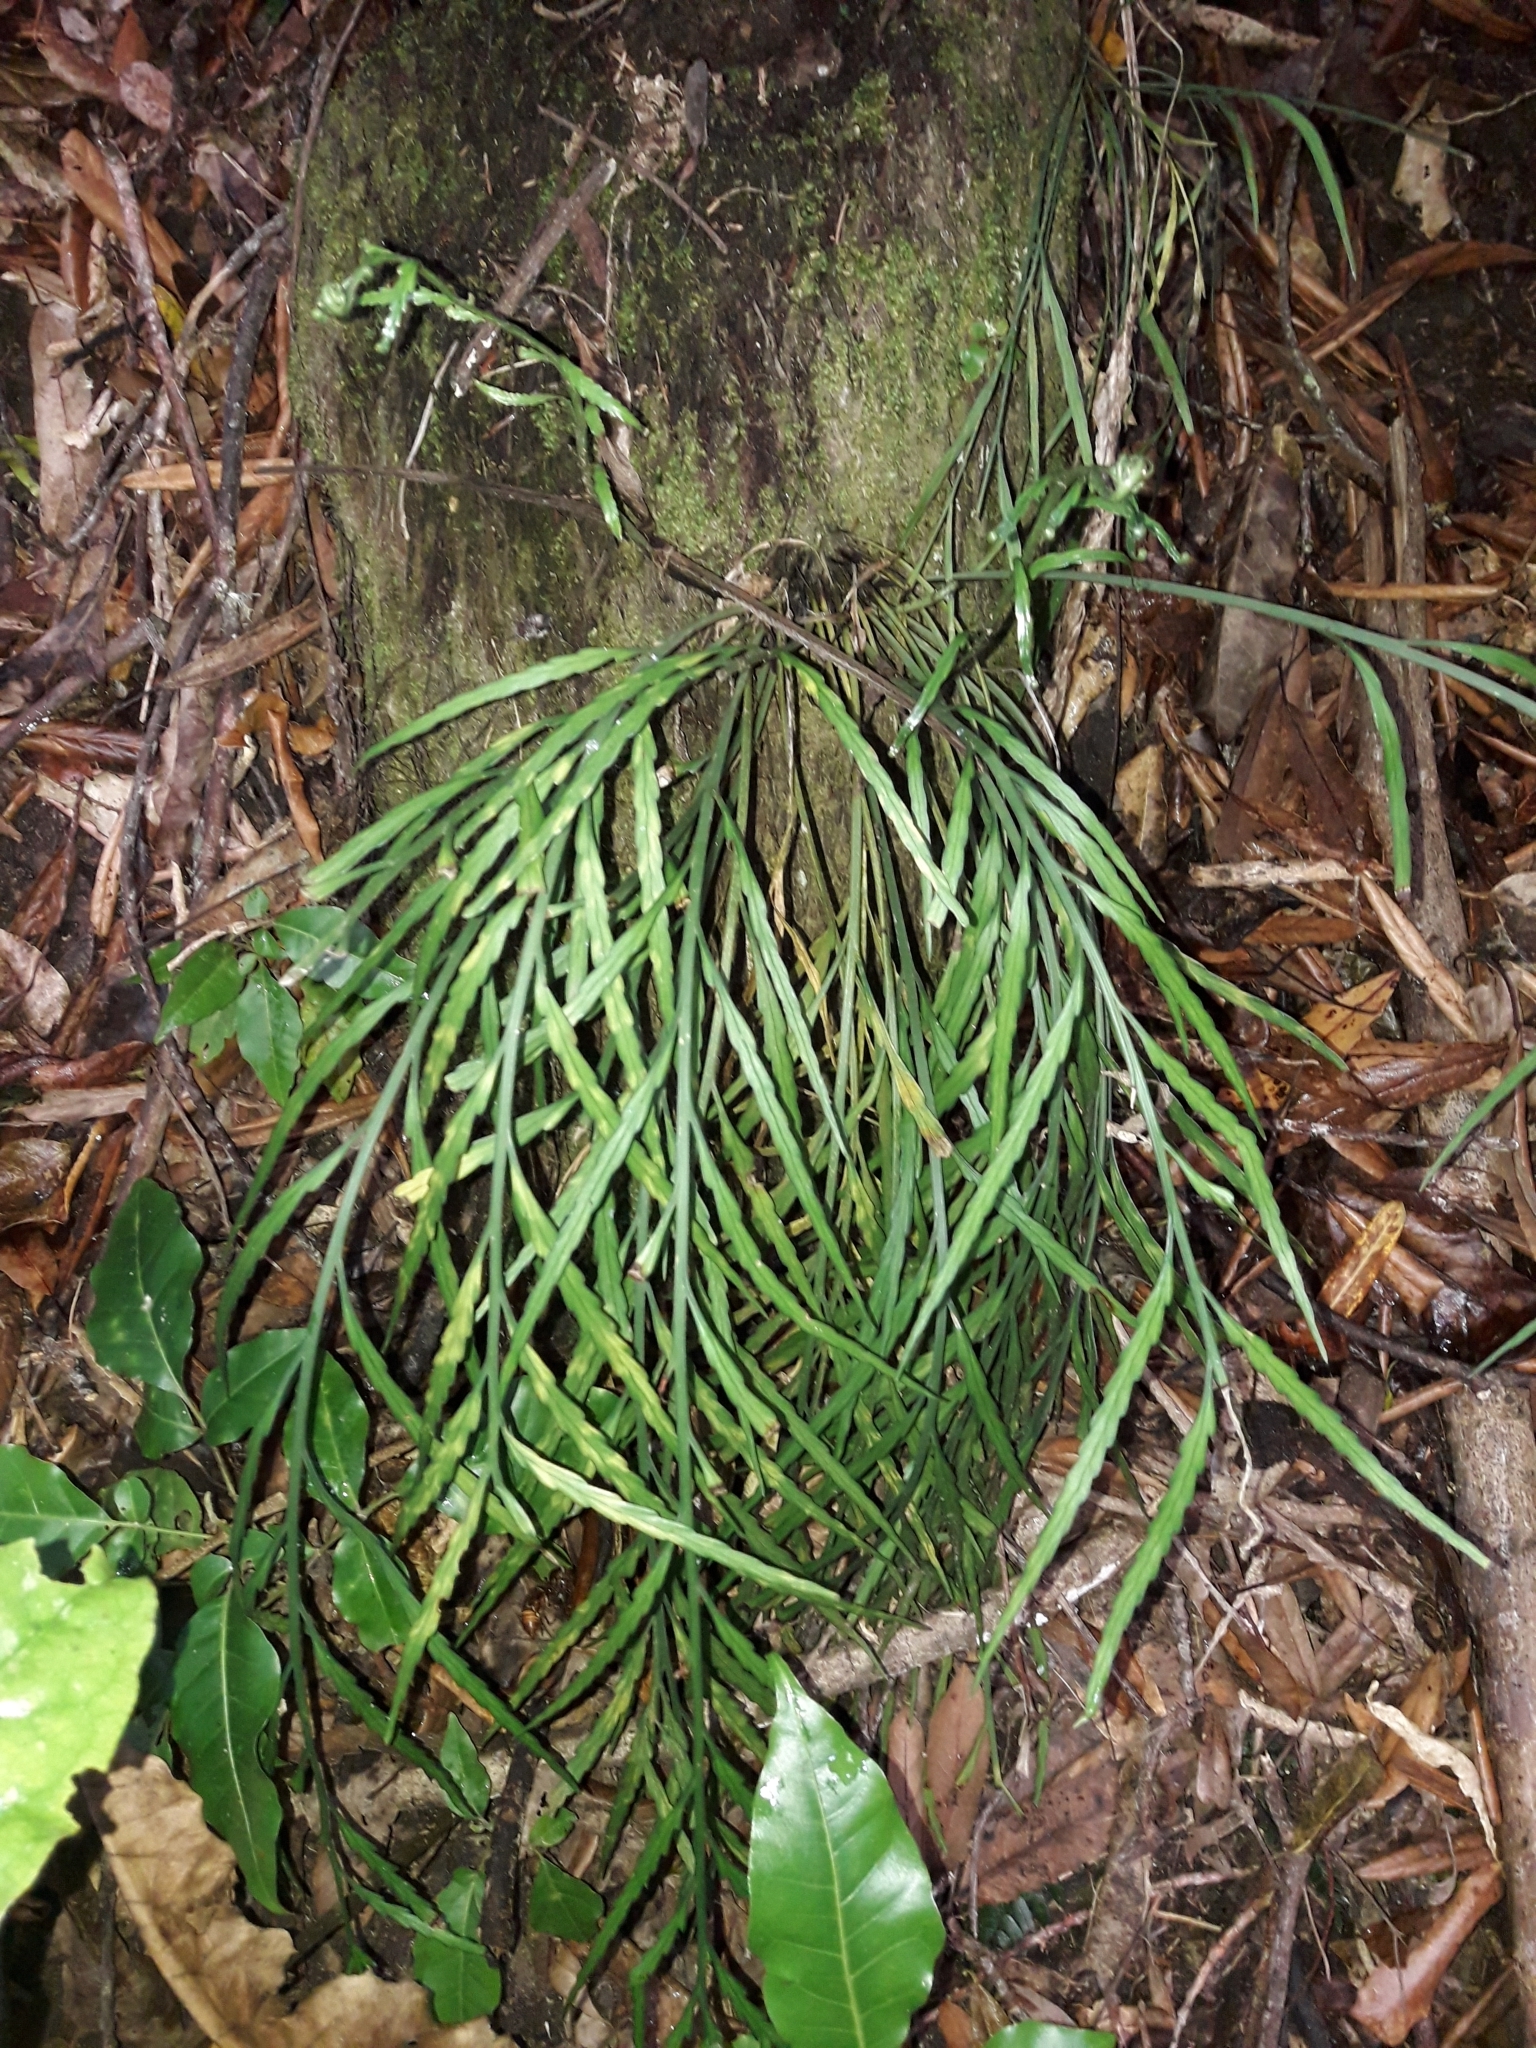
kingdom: Plantae
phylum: Tracheophyta
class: Polypodiopsida
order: Polypodiales
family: Aspleniaceae
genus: Asplenium
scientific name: Asplenium flaccidum
